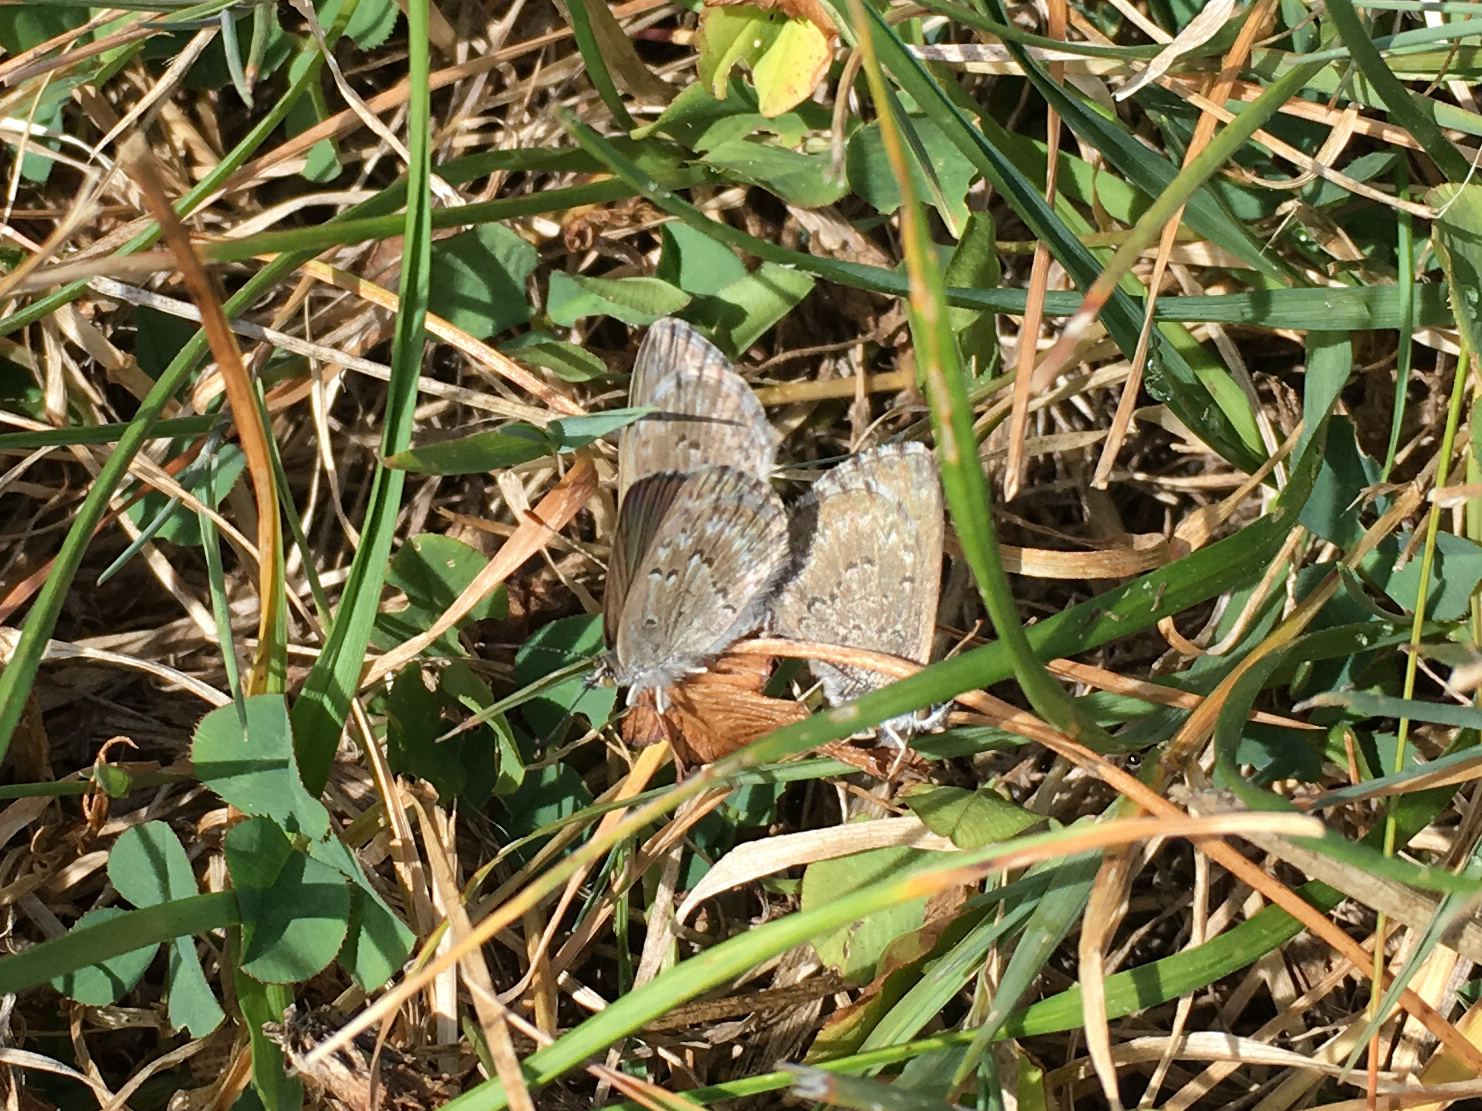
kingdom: Animalia
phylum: Arthropoda
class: Insecta
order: Lepidoptera
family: Lycaenidae
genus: Zizina
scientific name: Zizina oxleyi
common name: Southern blue
